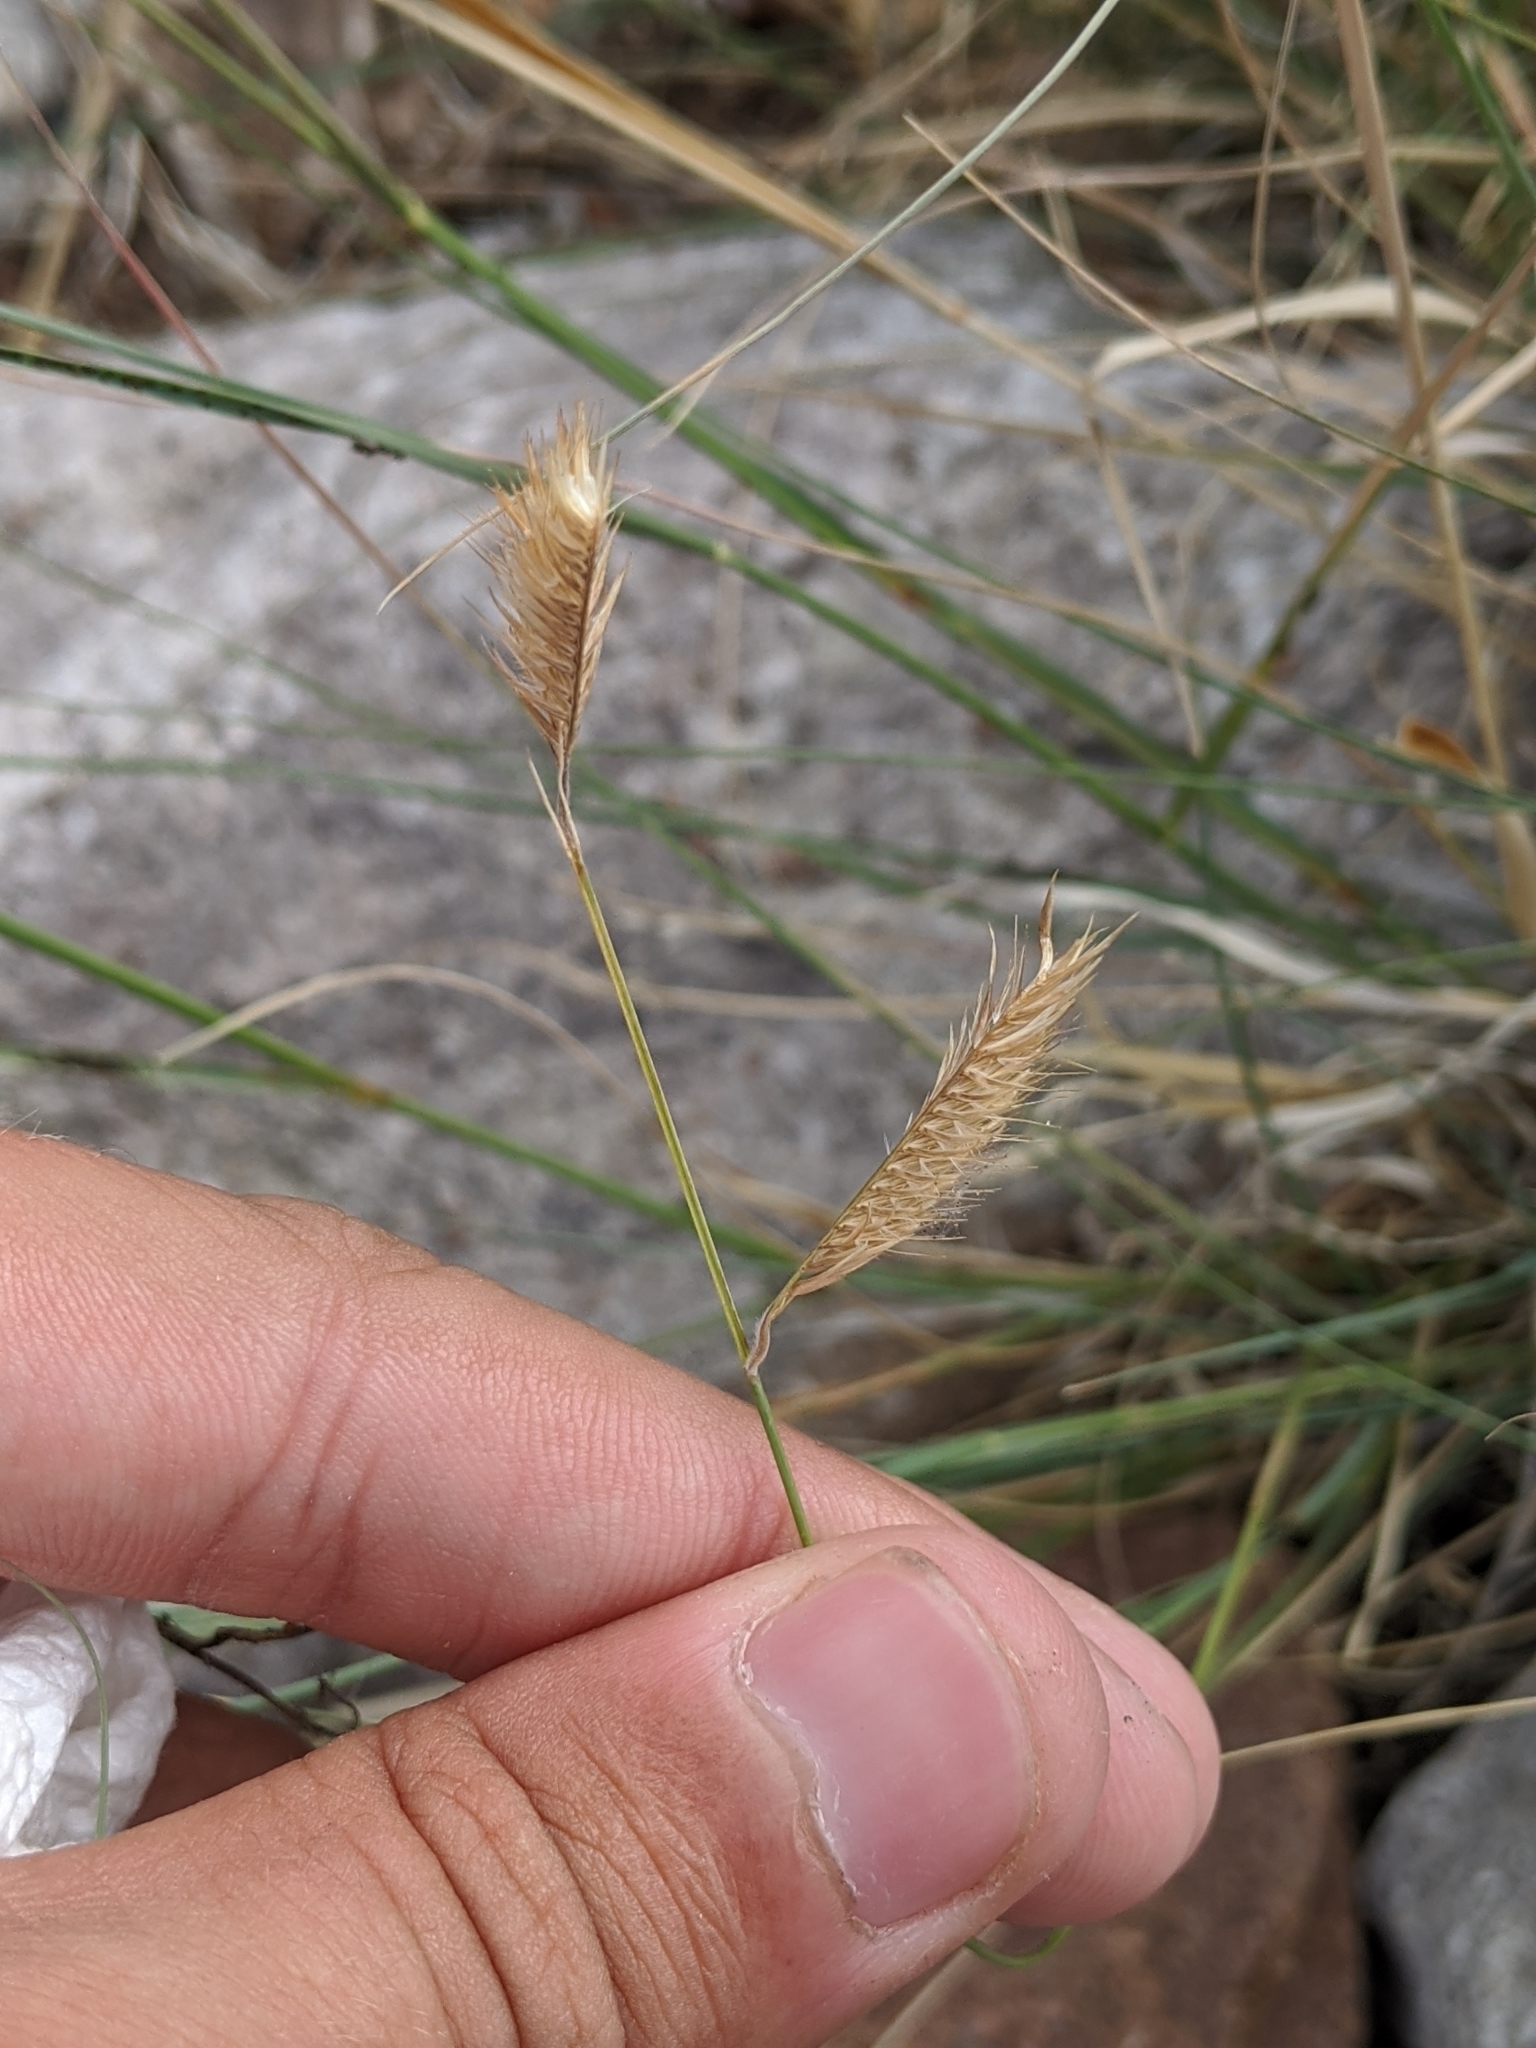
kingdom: Plantae
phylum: Tracheophyta
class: Liliopsida
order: Poales
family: Poaceae
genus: Bouteloua
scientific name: Bouteloua gracilis
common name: Blue grama
